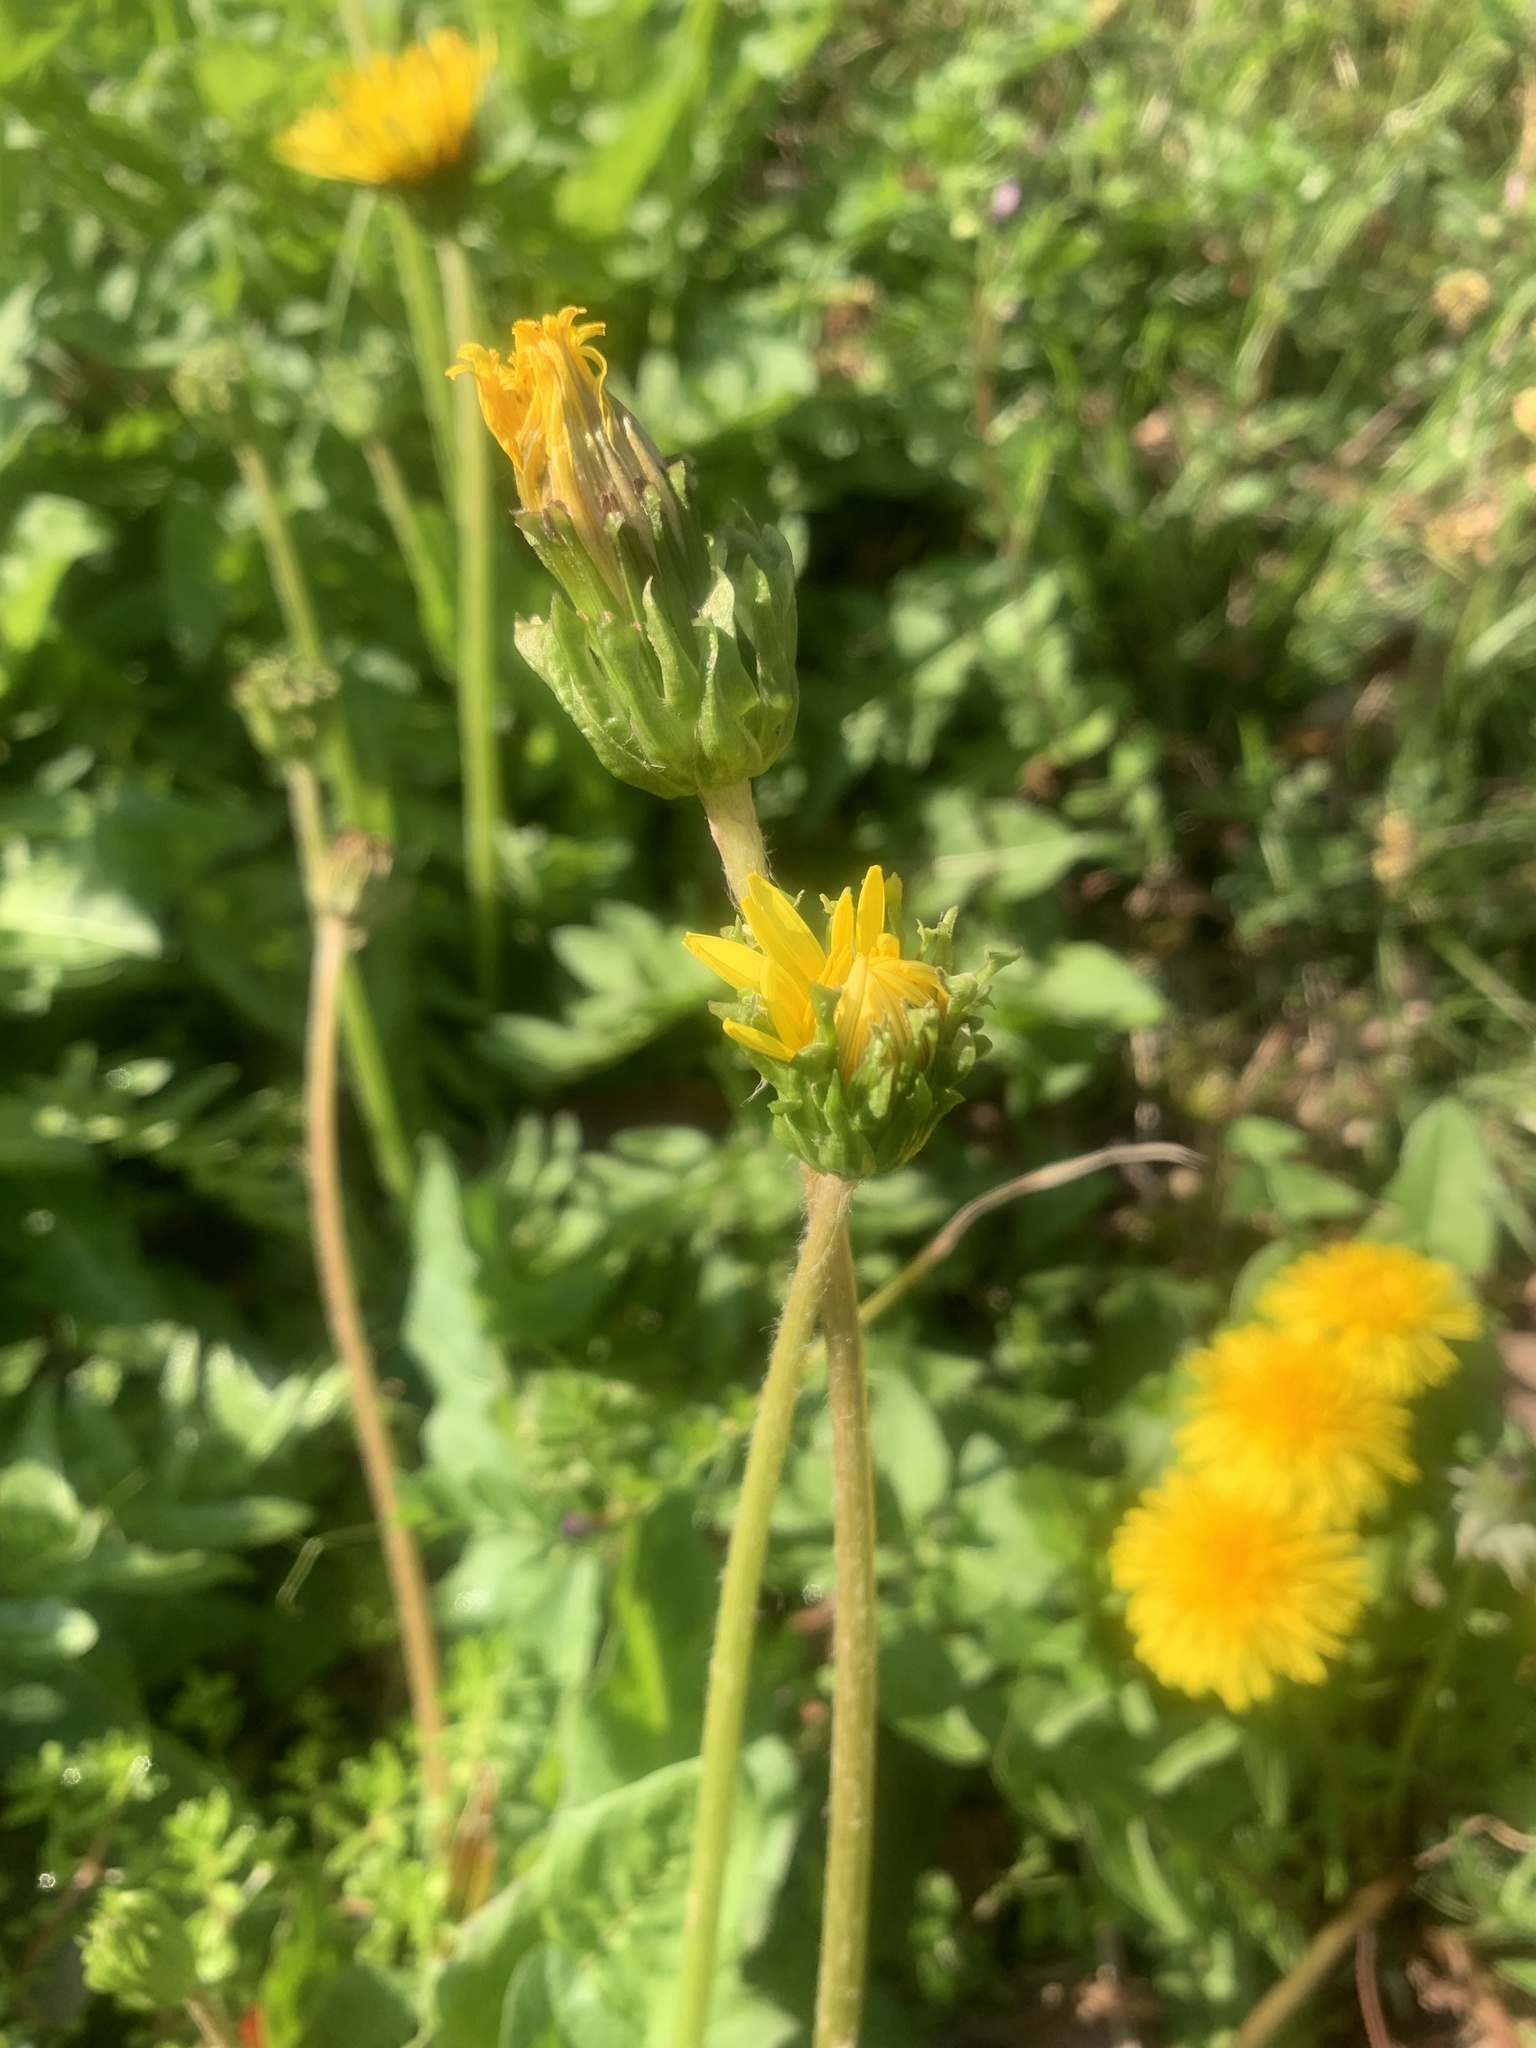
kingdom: Plantae
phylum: Tracheophyta
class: Magnoliopsida
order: Asterales
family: Asteraceae
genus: Taraxacum
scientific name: Taraxacum platycarpum
